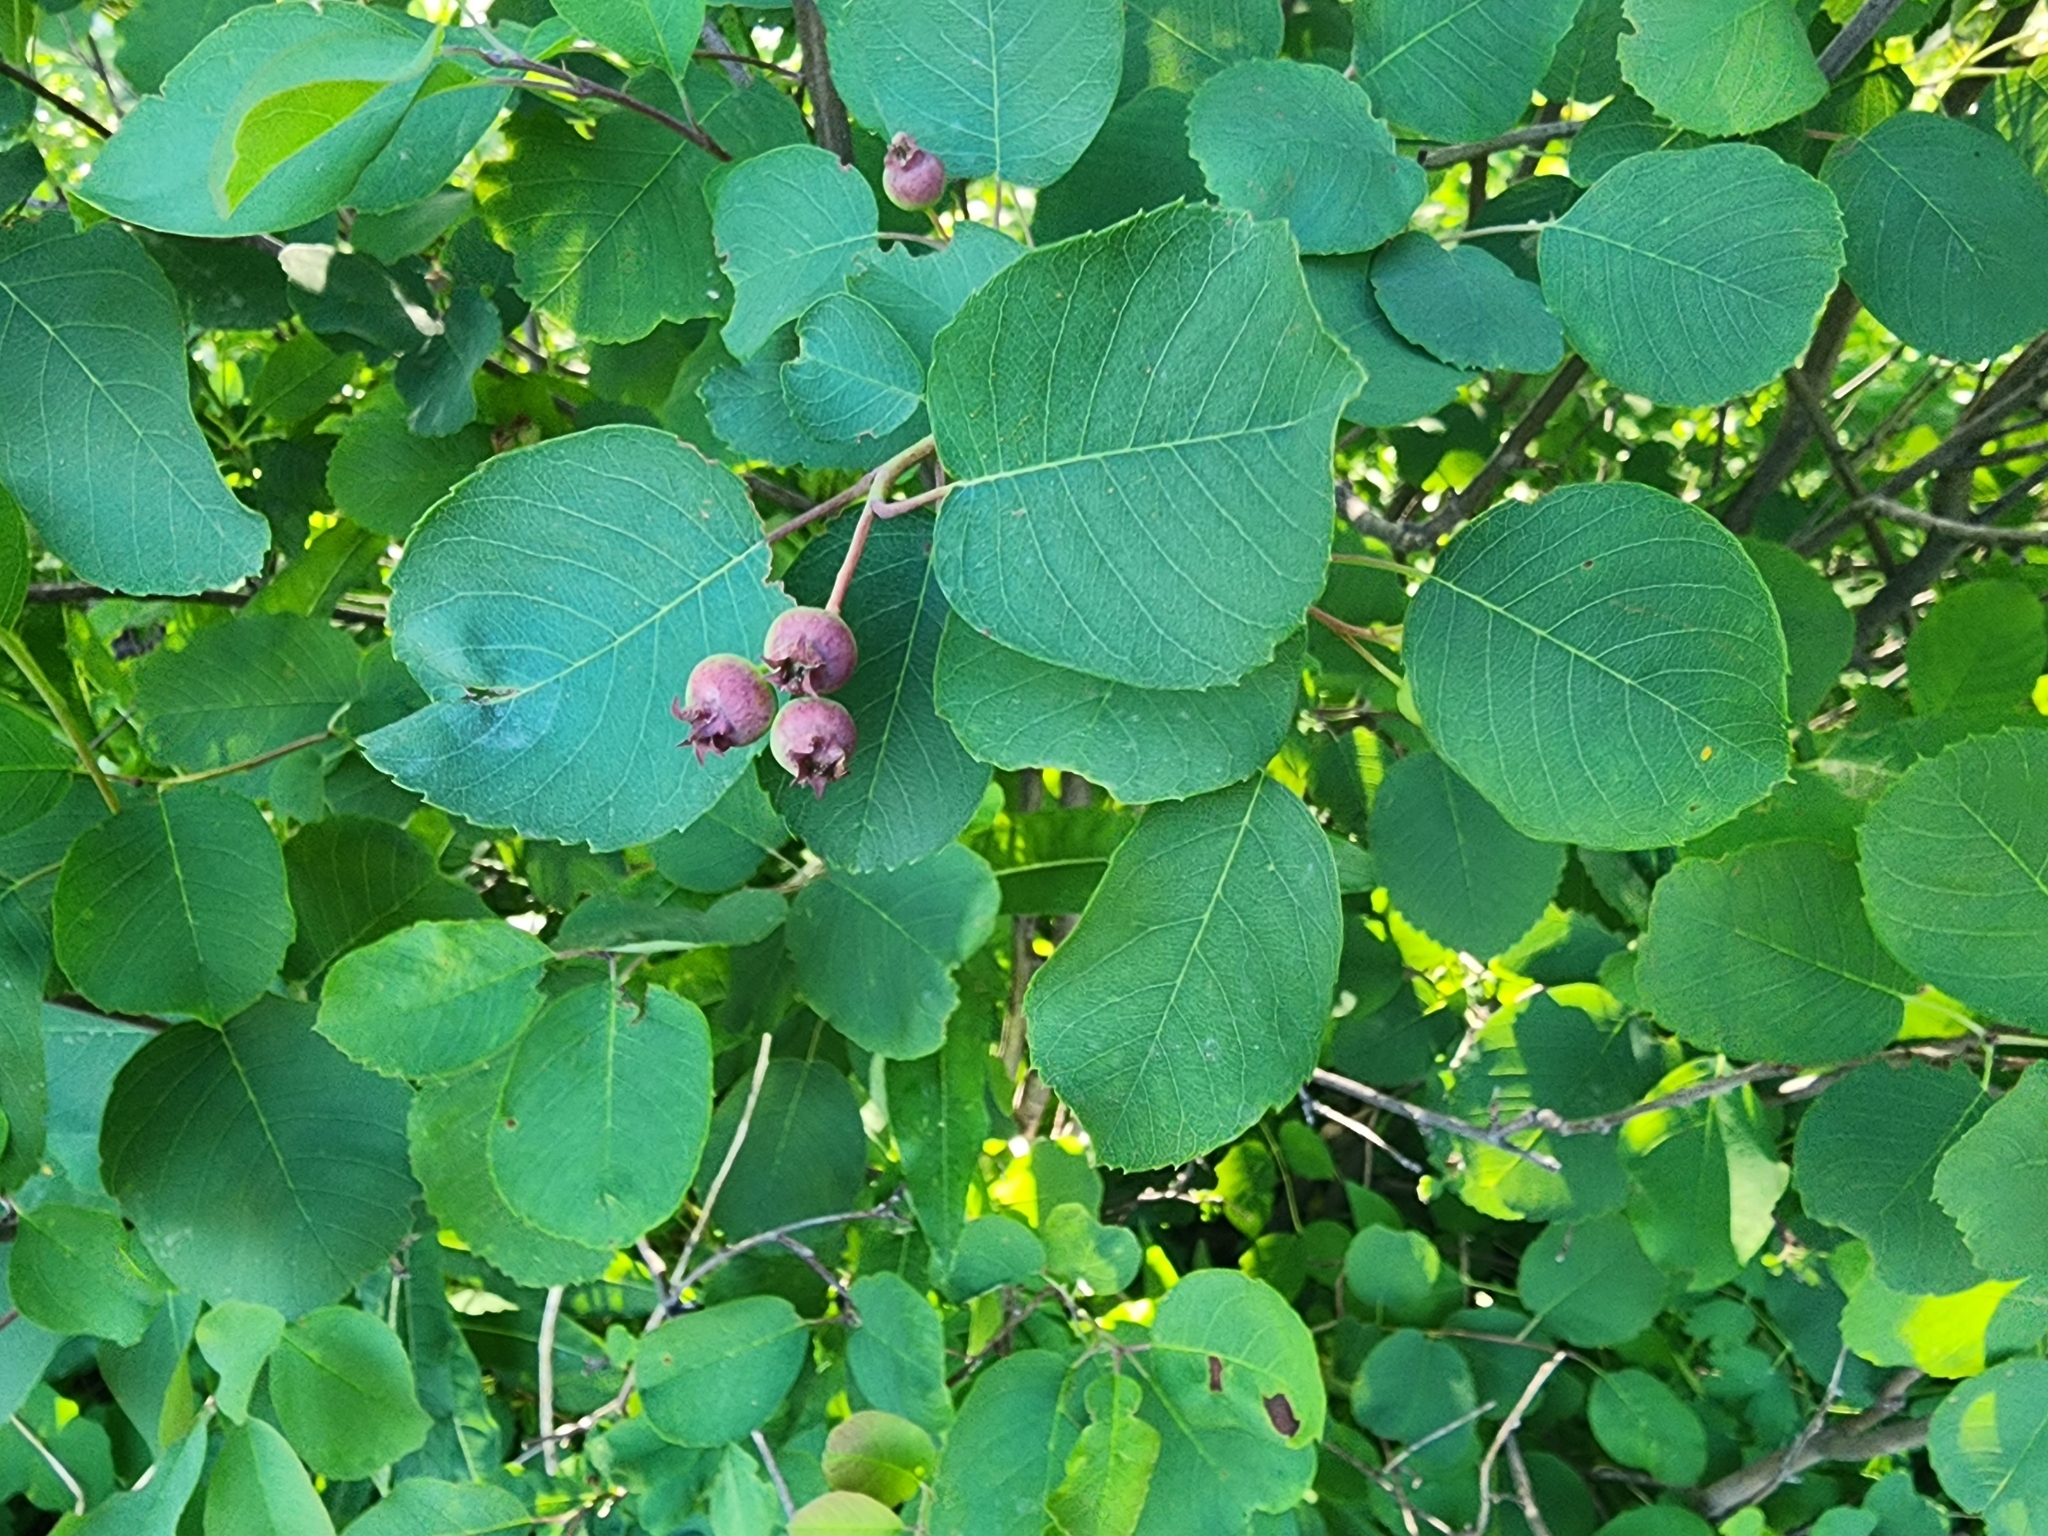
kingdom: Plantae
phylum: Tracheophyta
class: Magnoliopsida
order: Rosales
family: Rosaceae
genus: Amelanchier
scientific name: Amelanchier alnifolia
